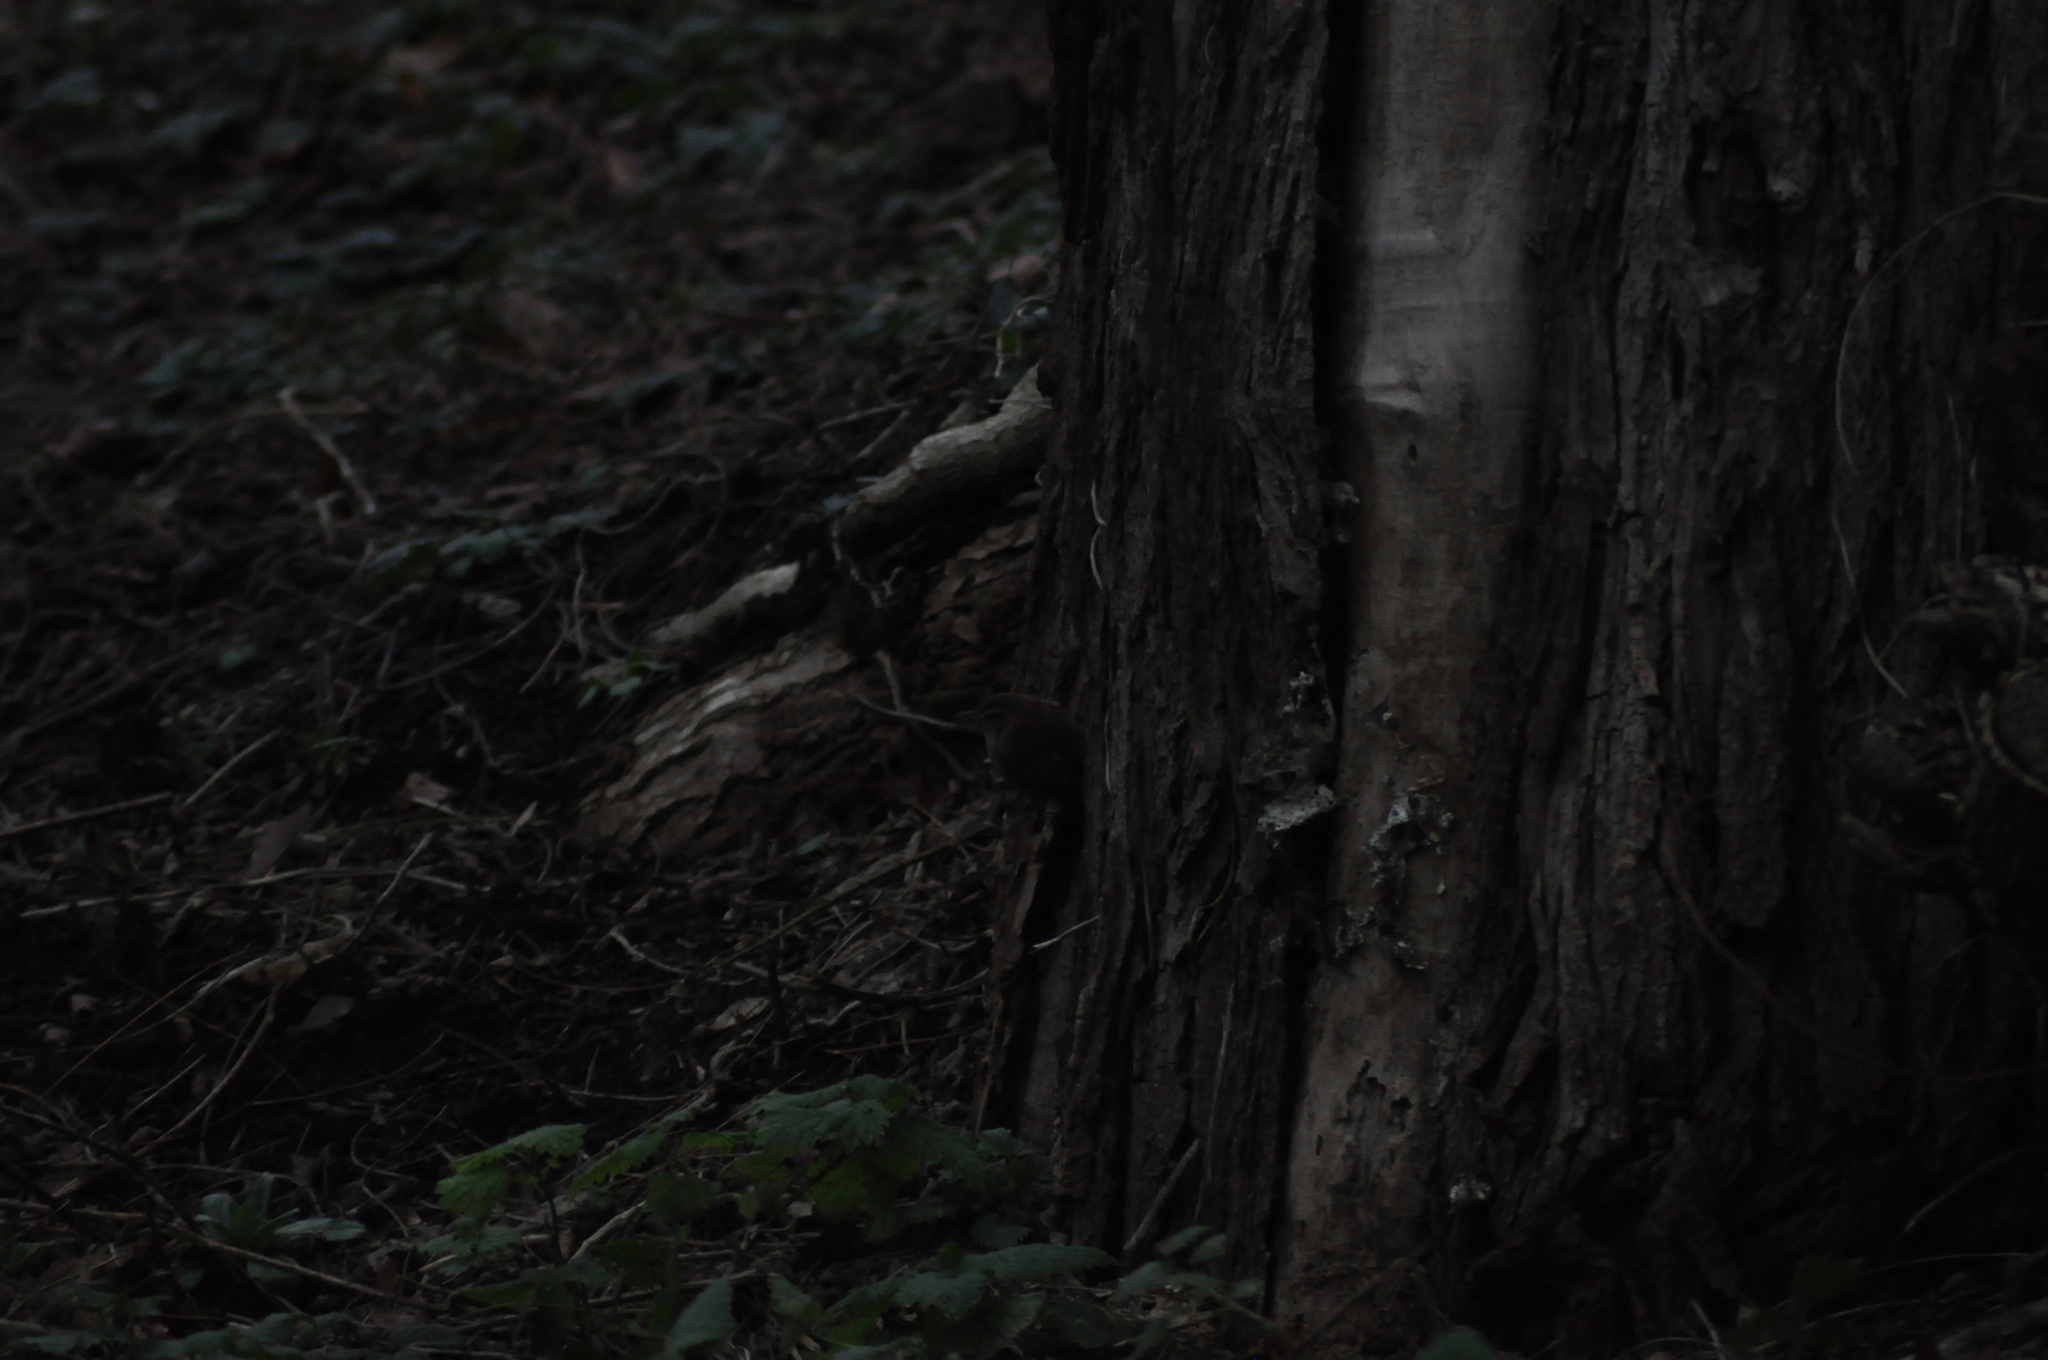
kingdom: Animalia
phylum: Chordata
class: Aves
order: Passeriformes
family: Troglodytidae
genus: Troglodytes
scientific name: Troglodytes troglodytes
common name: Eurasian wren
